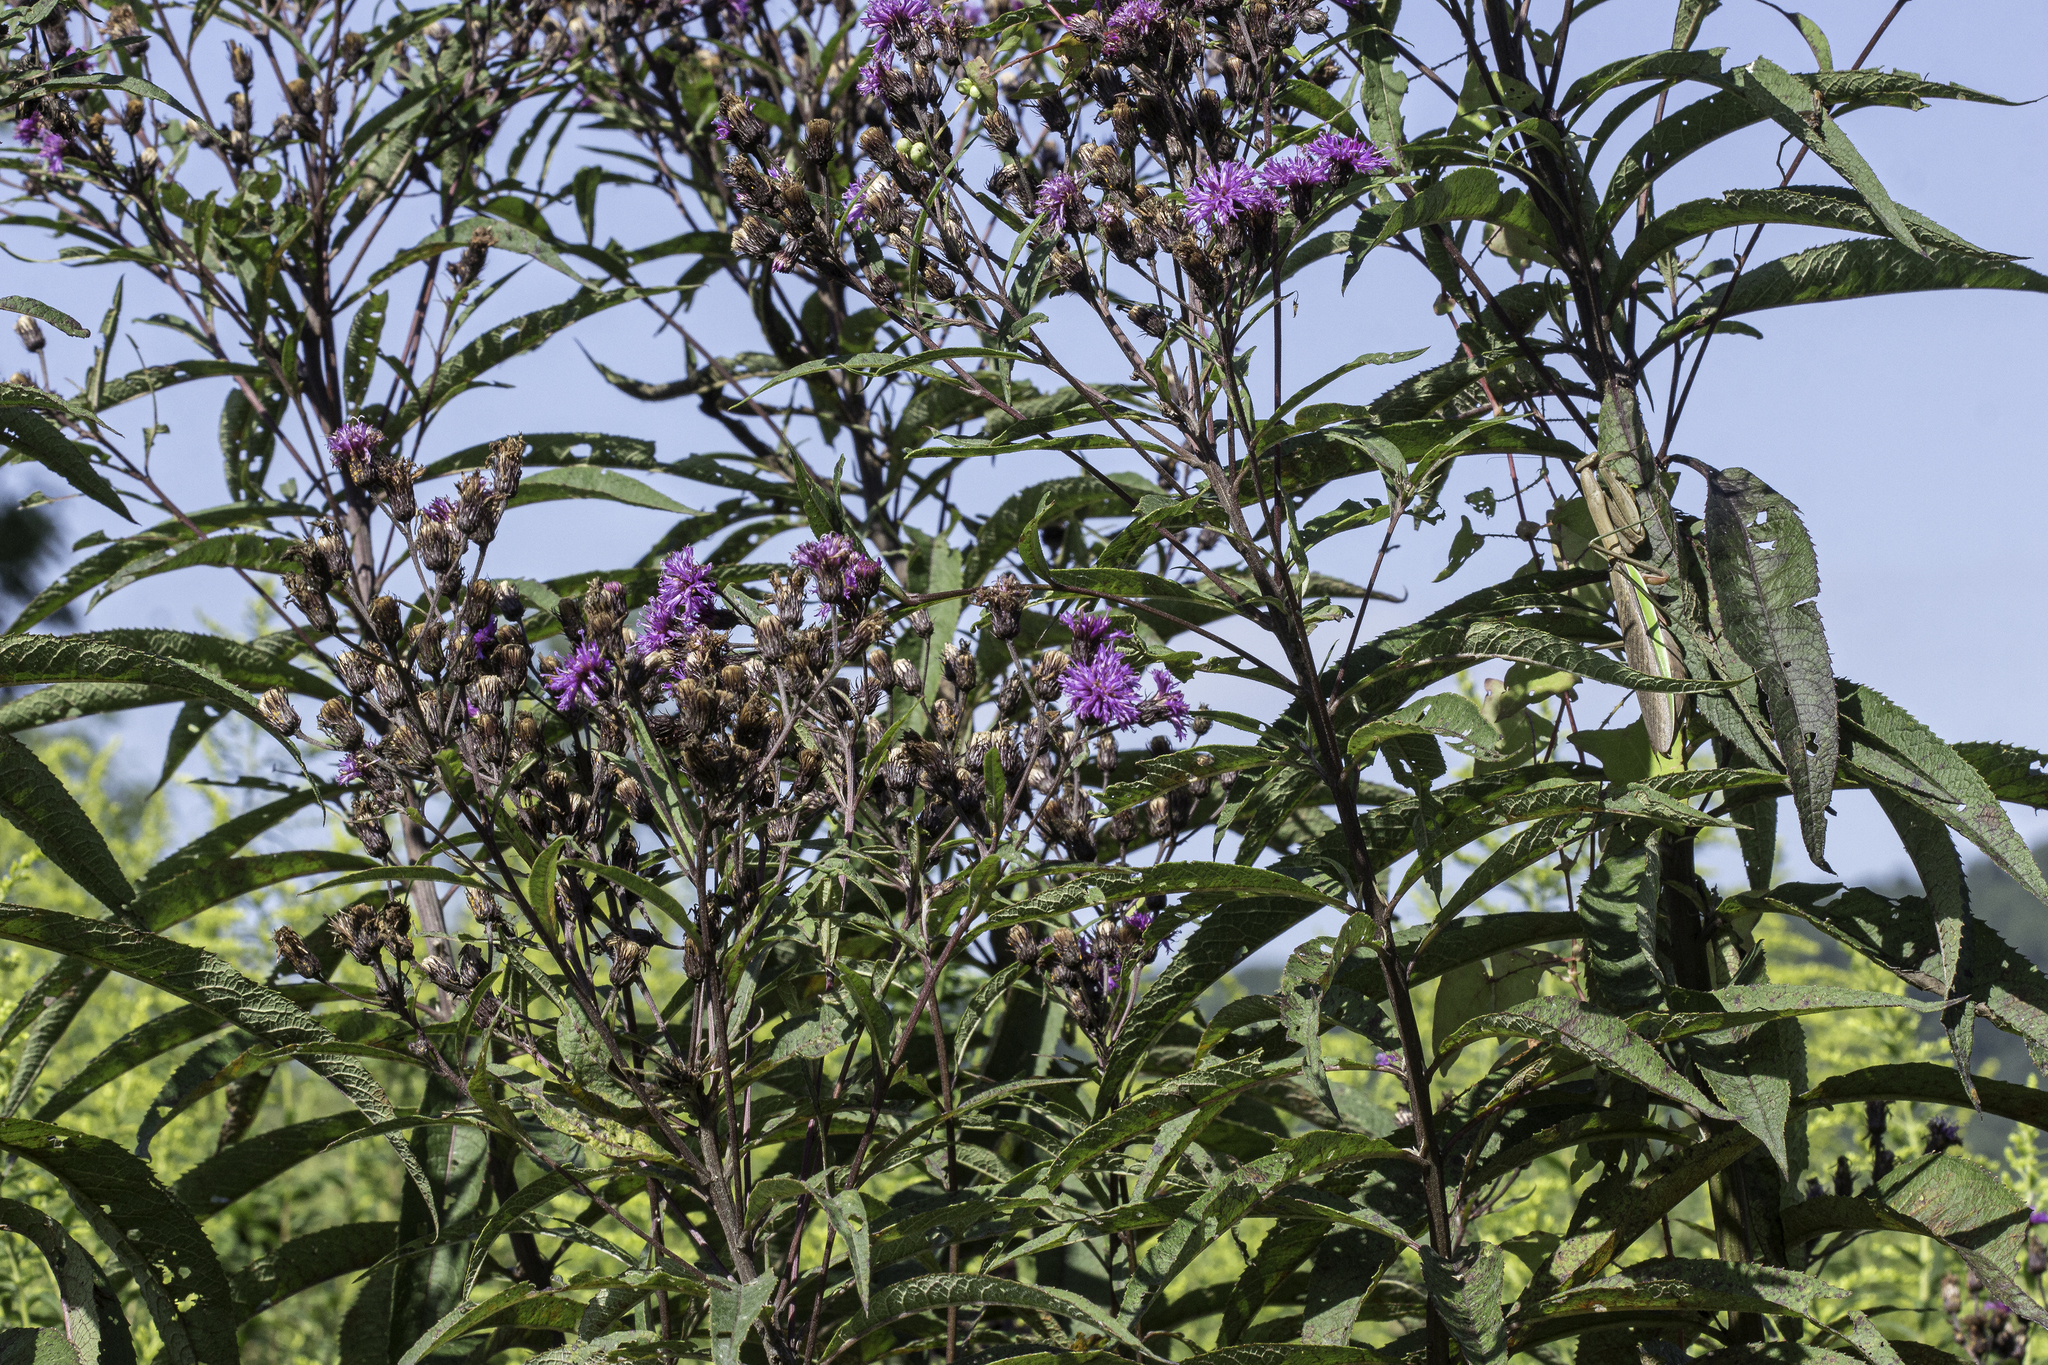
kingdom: Plantae
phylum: Tracheophyta
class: Magnoliopsida
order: Asterales
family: Asteraceae
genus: Vernonia
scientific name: Vernonia noveboracensis
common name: New york ironweed
